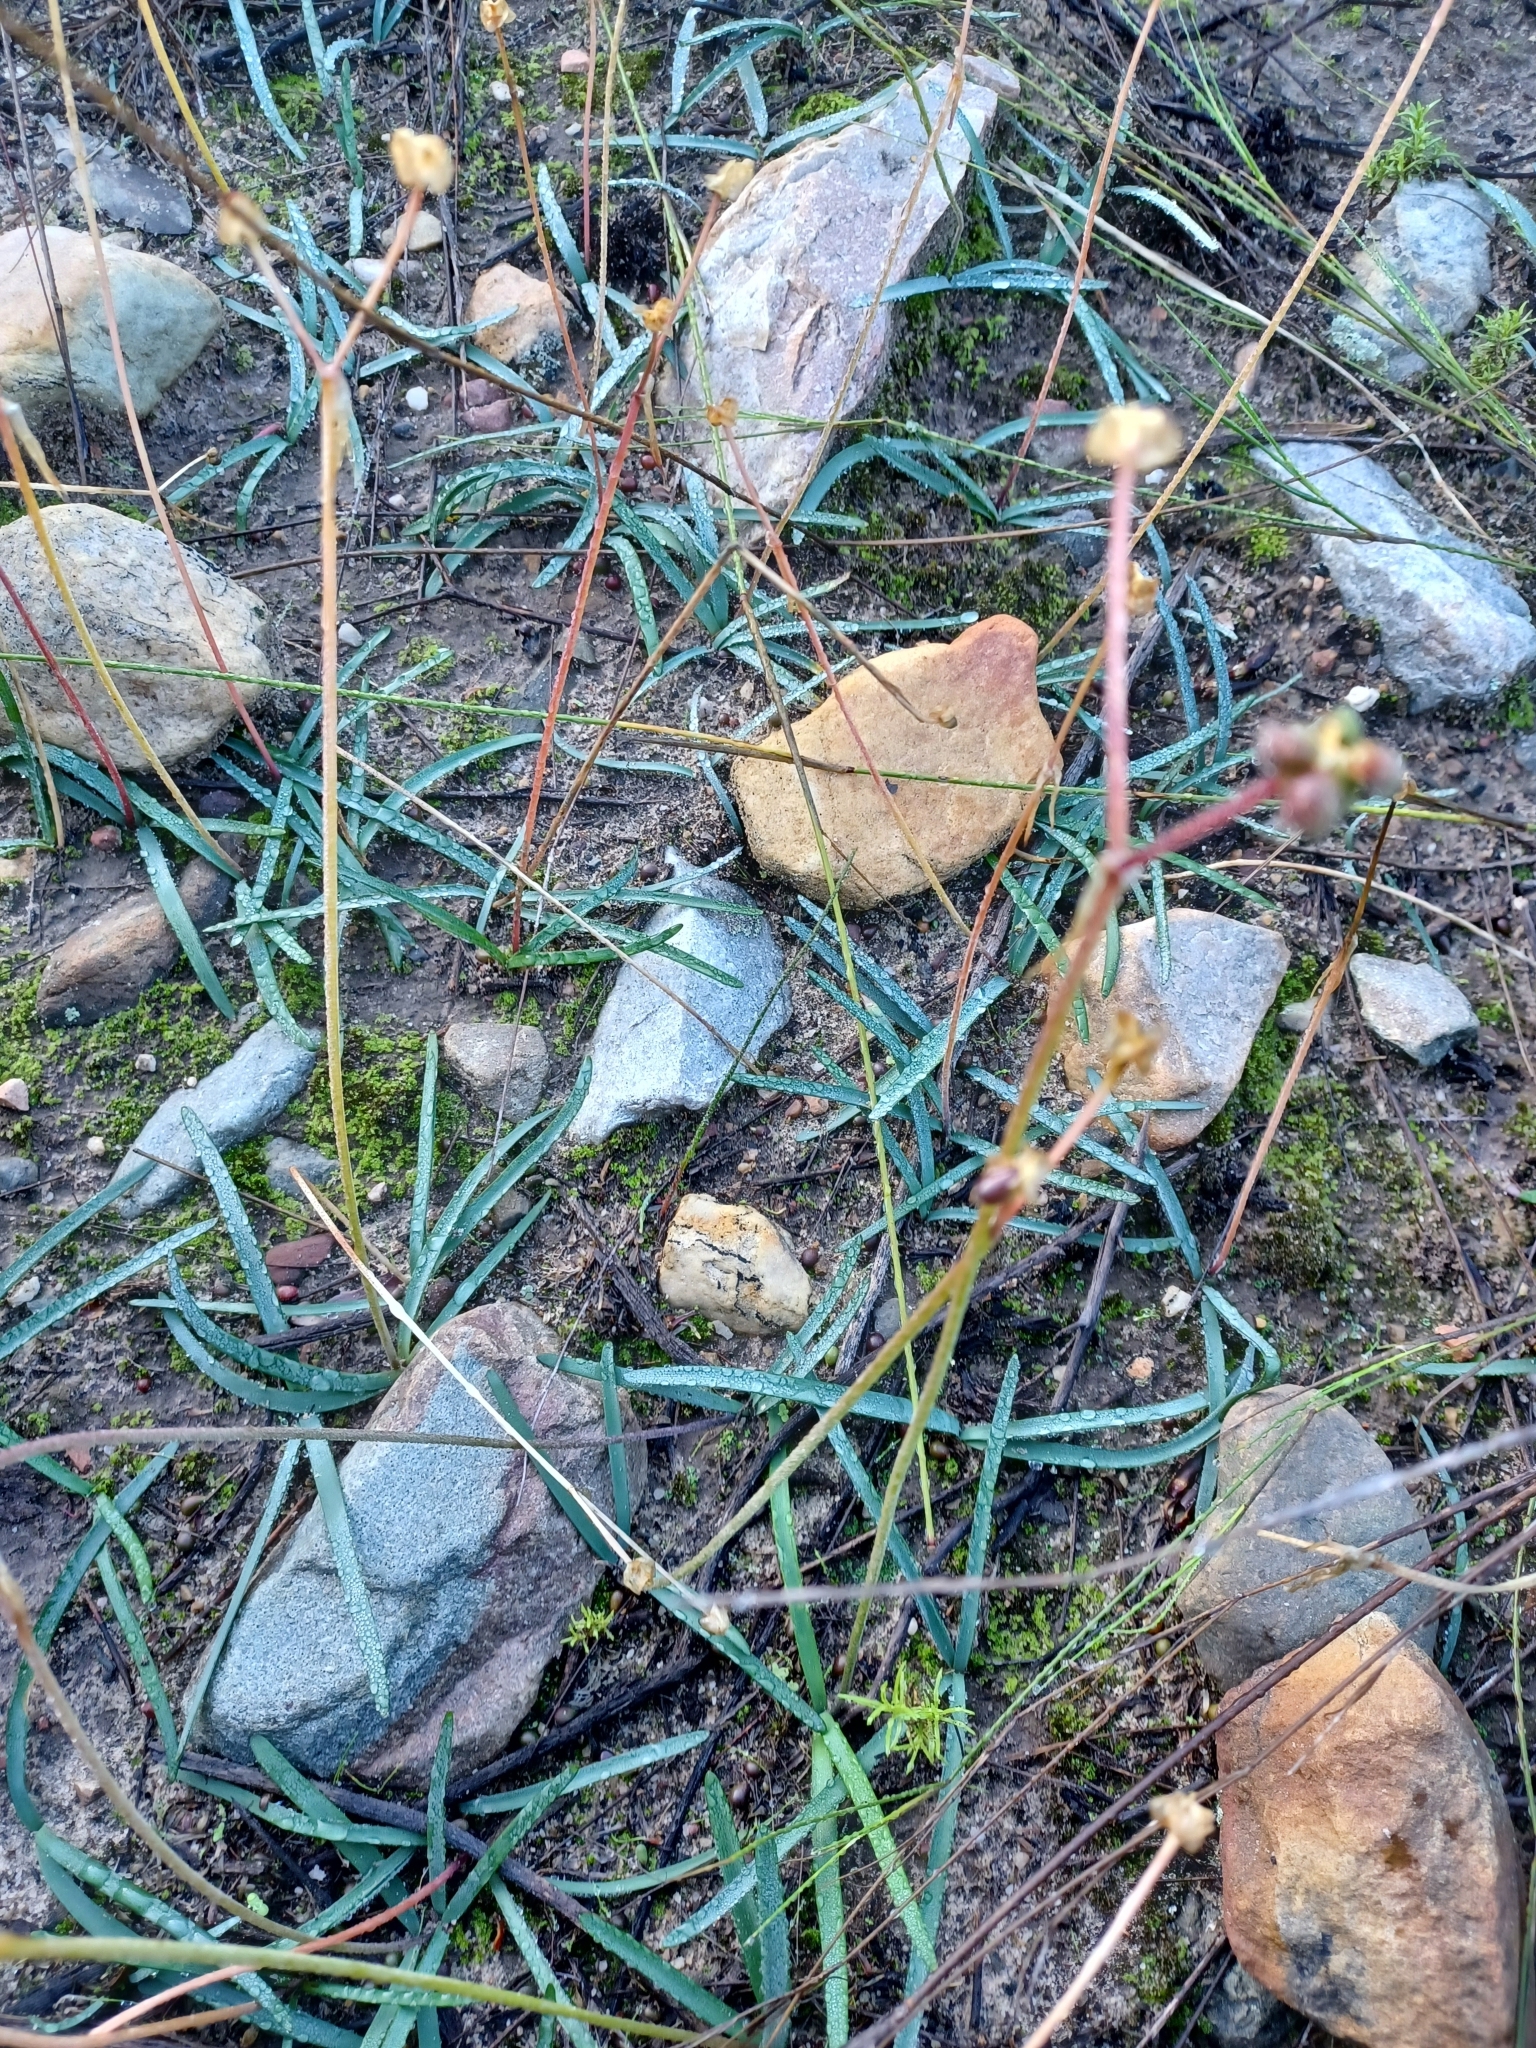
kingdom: Plantae
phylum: Tracheophyta
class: Liliopsida
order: Asparagales
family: Amaryllidaceae
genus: Nerine
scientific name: Nerine humilis
